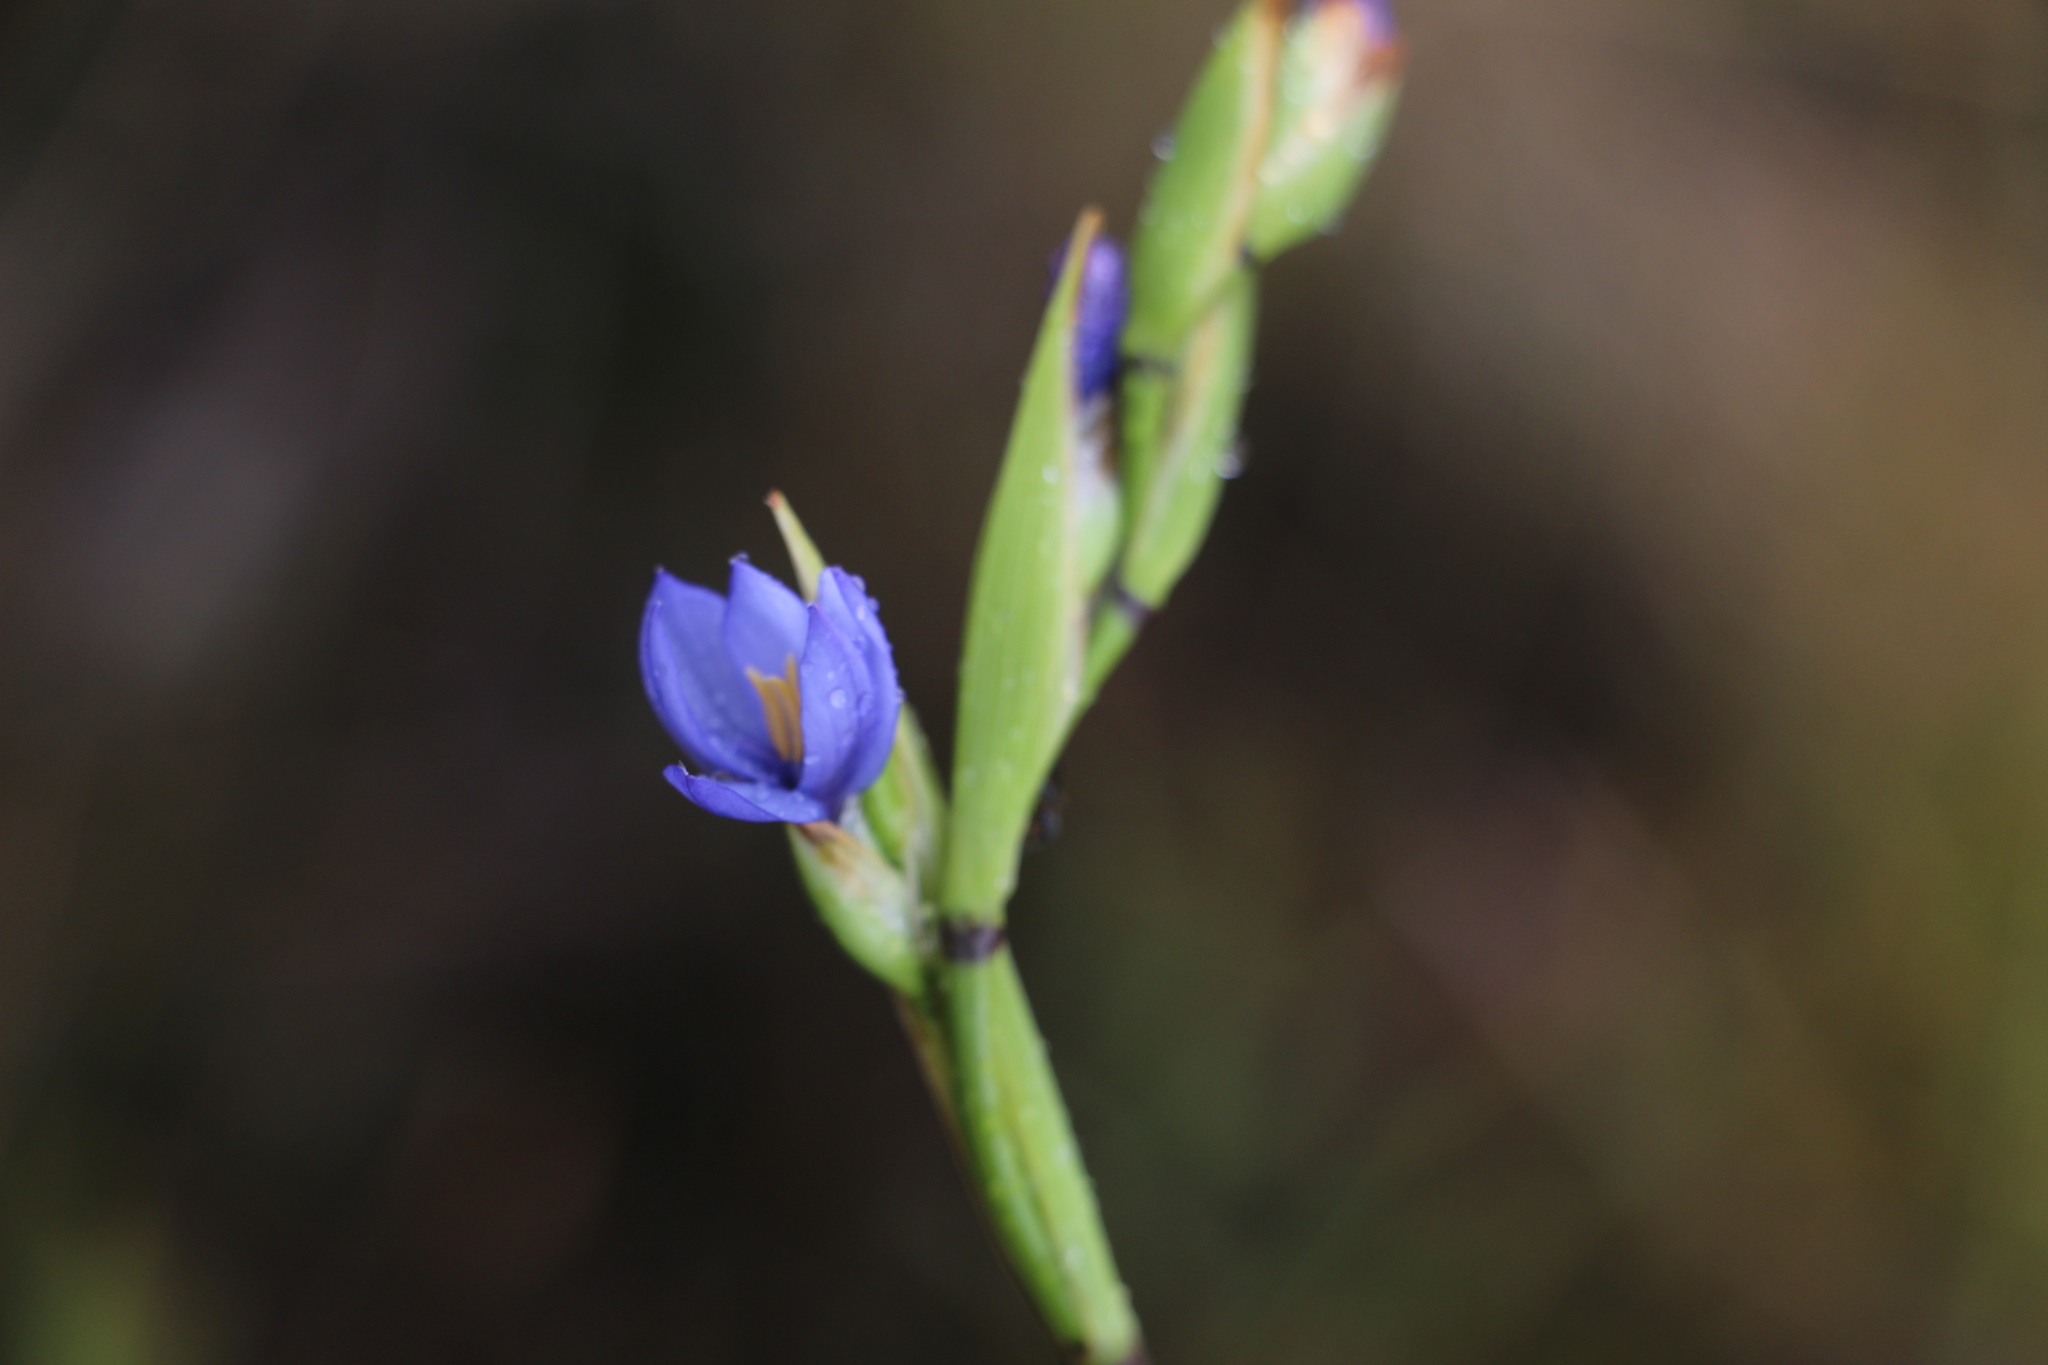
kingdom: Plantae
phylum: Tracheophyta
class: Liliopsida
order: Asparagales
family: Iridaceae
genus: Orthrosanthus
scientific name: Orthrosanthus chimboracensis
